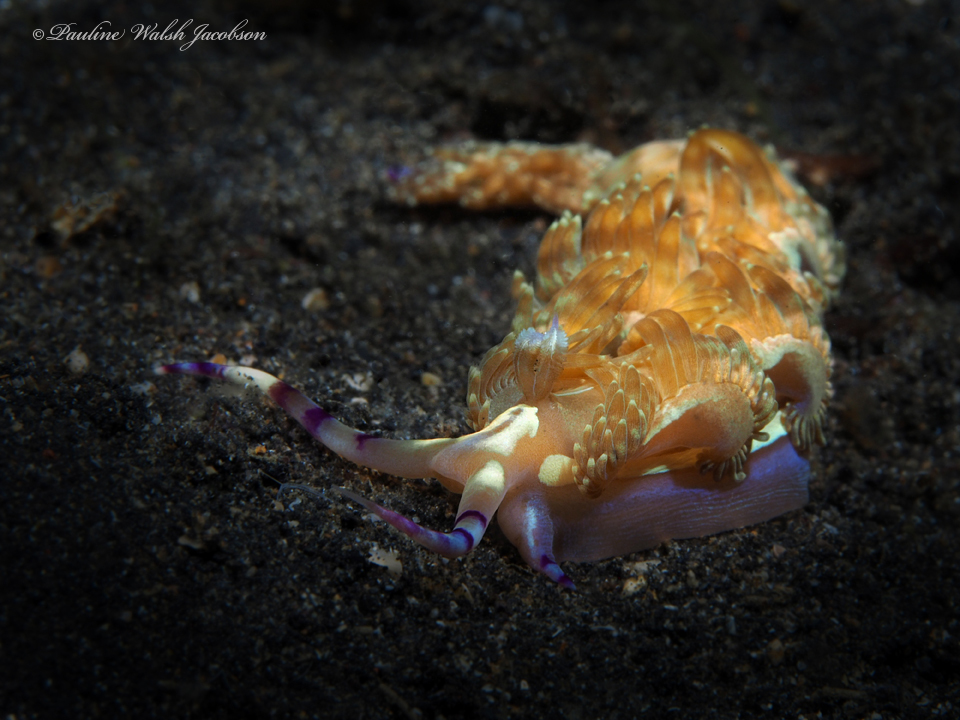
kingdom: Animalia
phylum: Mollusca
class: Gastropoda
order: Nudibranchia
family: Facelinidae
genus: Pteraeolidia
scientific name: Pteraeolidia semperi
